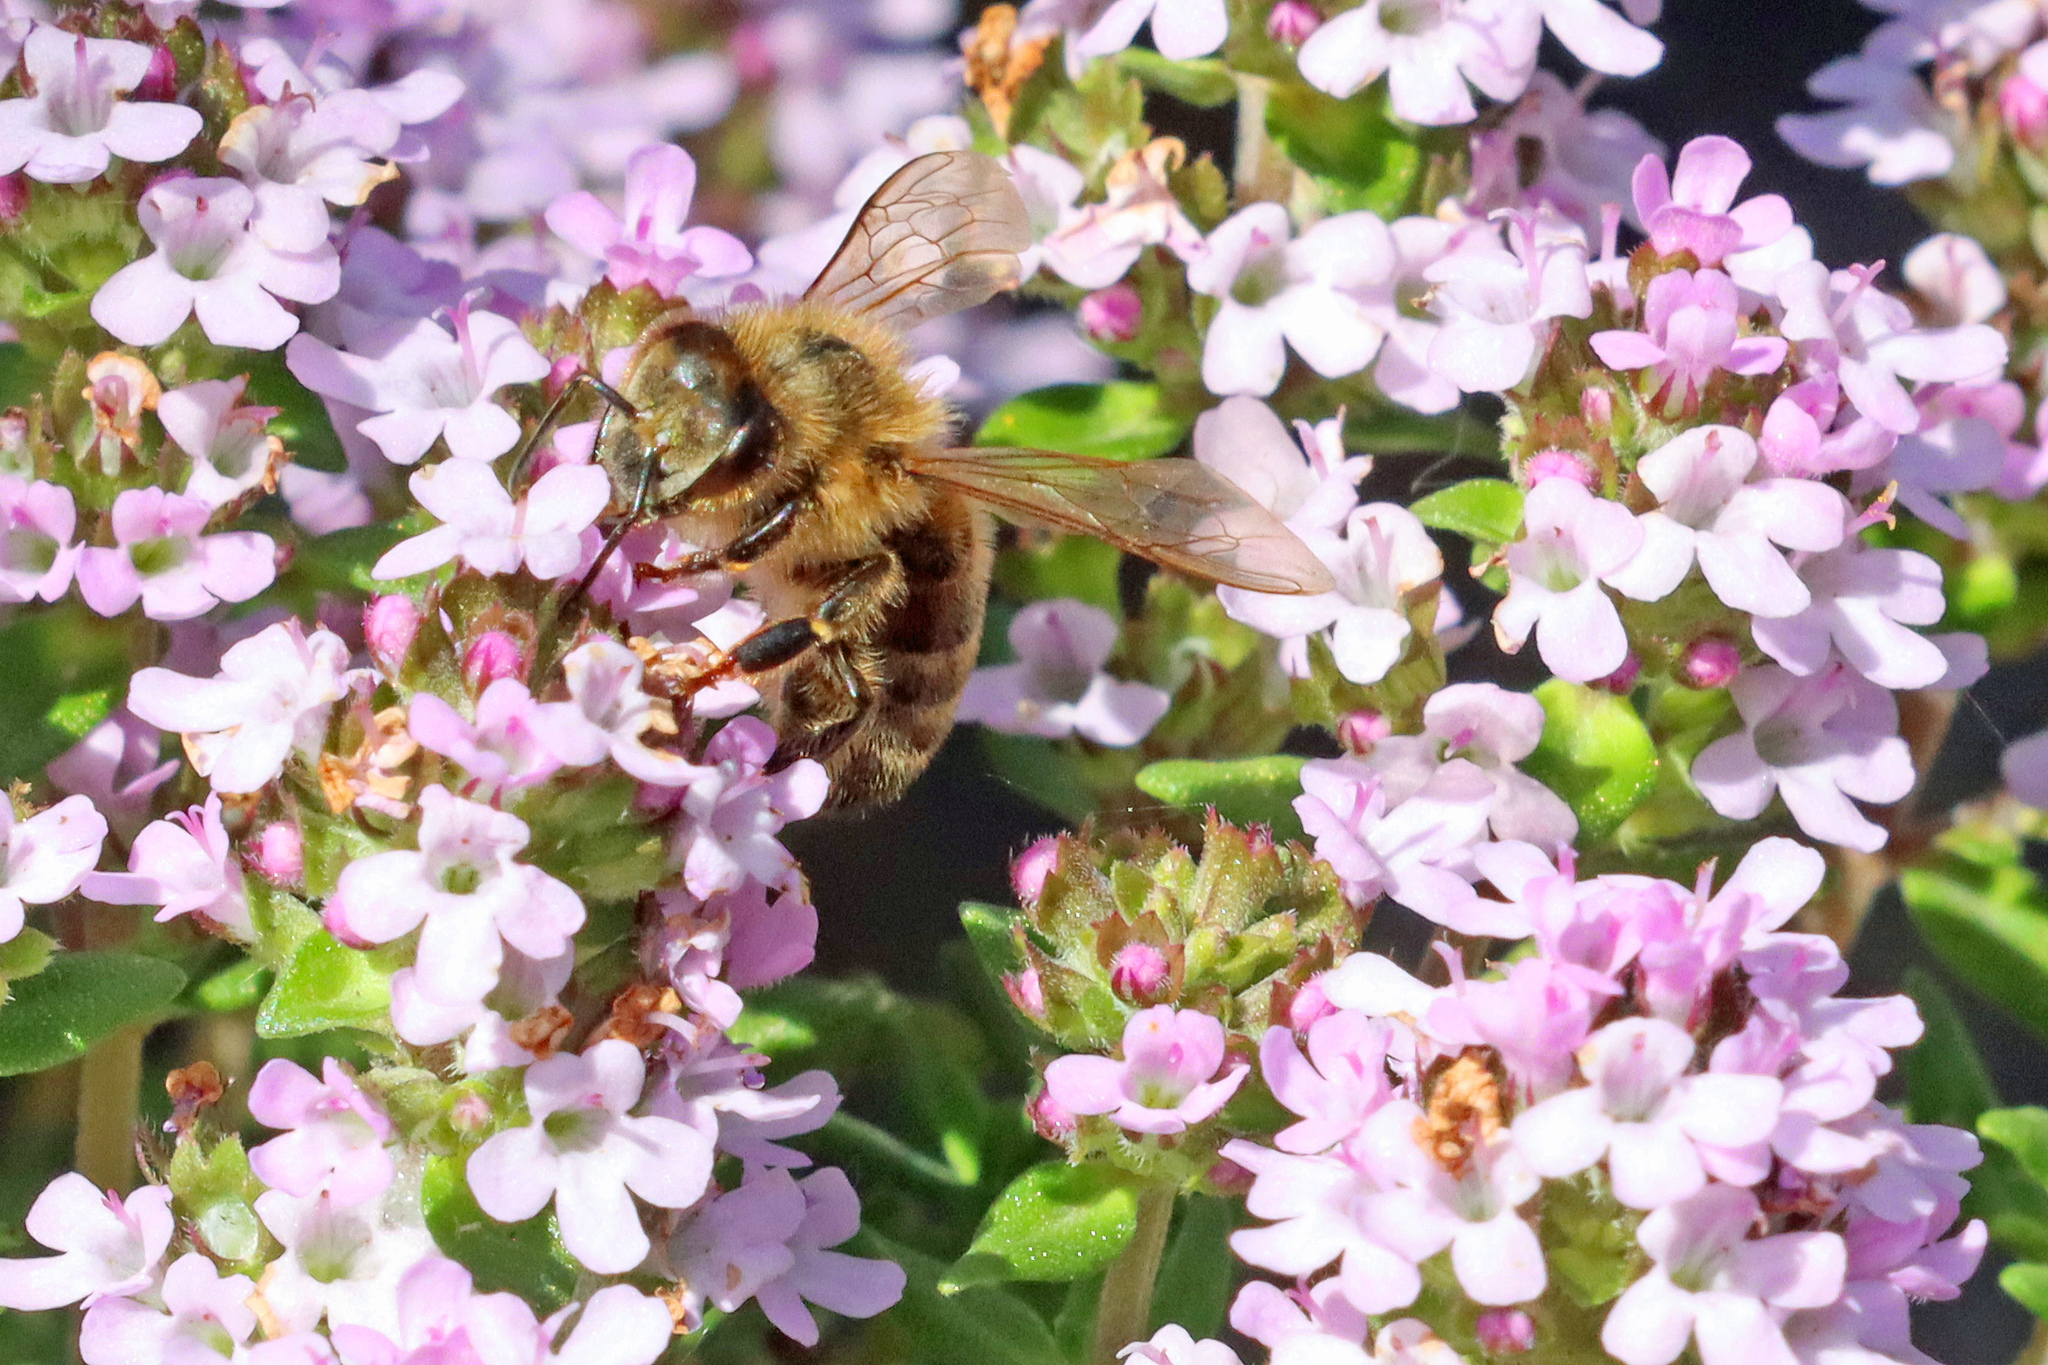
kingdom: Animalia
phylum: Arthropoda
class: Insecta
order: Hymenoptera
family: Apidae
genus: Apis
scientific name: Apis mellifera
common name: Honey bee
